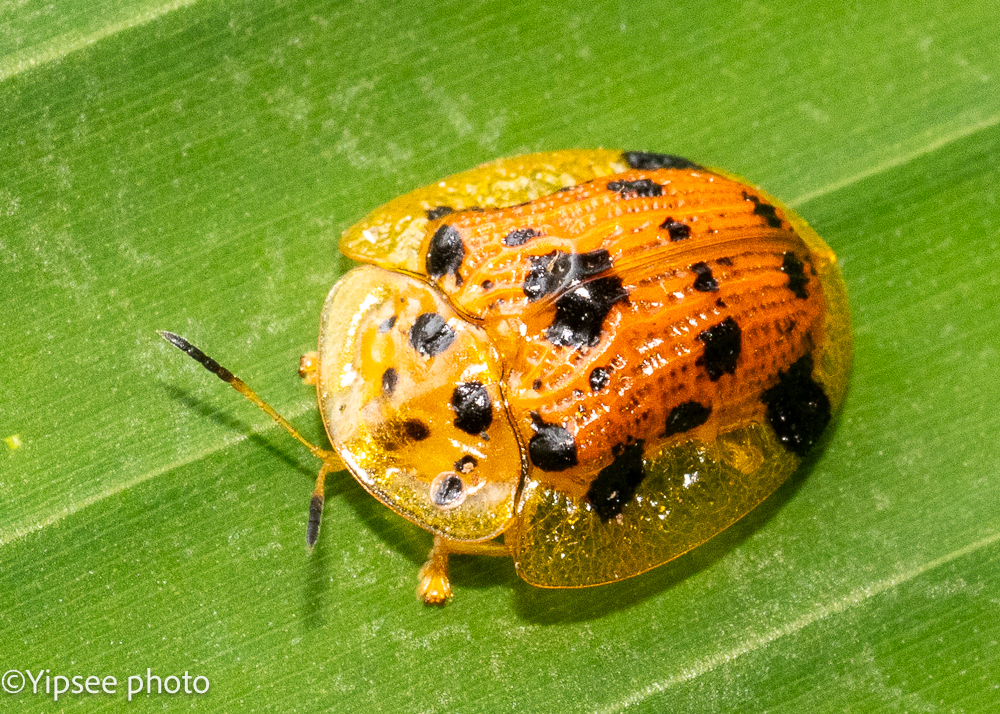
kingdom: Animalia
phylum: Arthropoda
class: Insecta
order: Coleoptera
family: Chrysomelidae
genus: Laccoptera
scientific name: Laccoptera nepalensis
